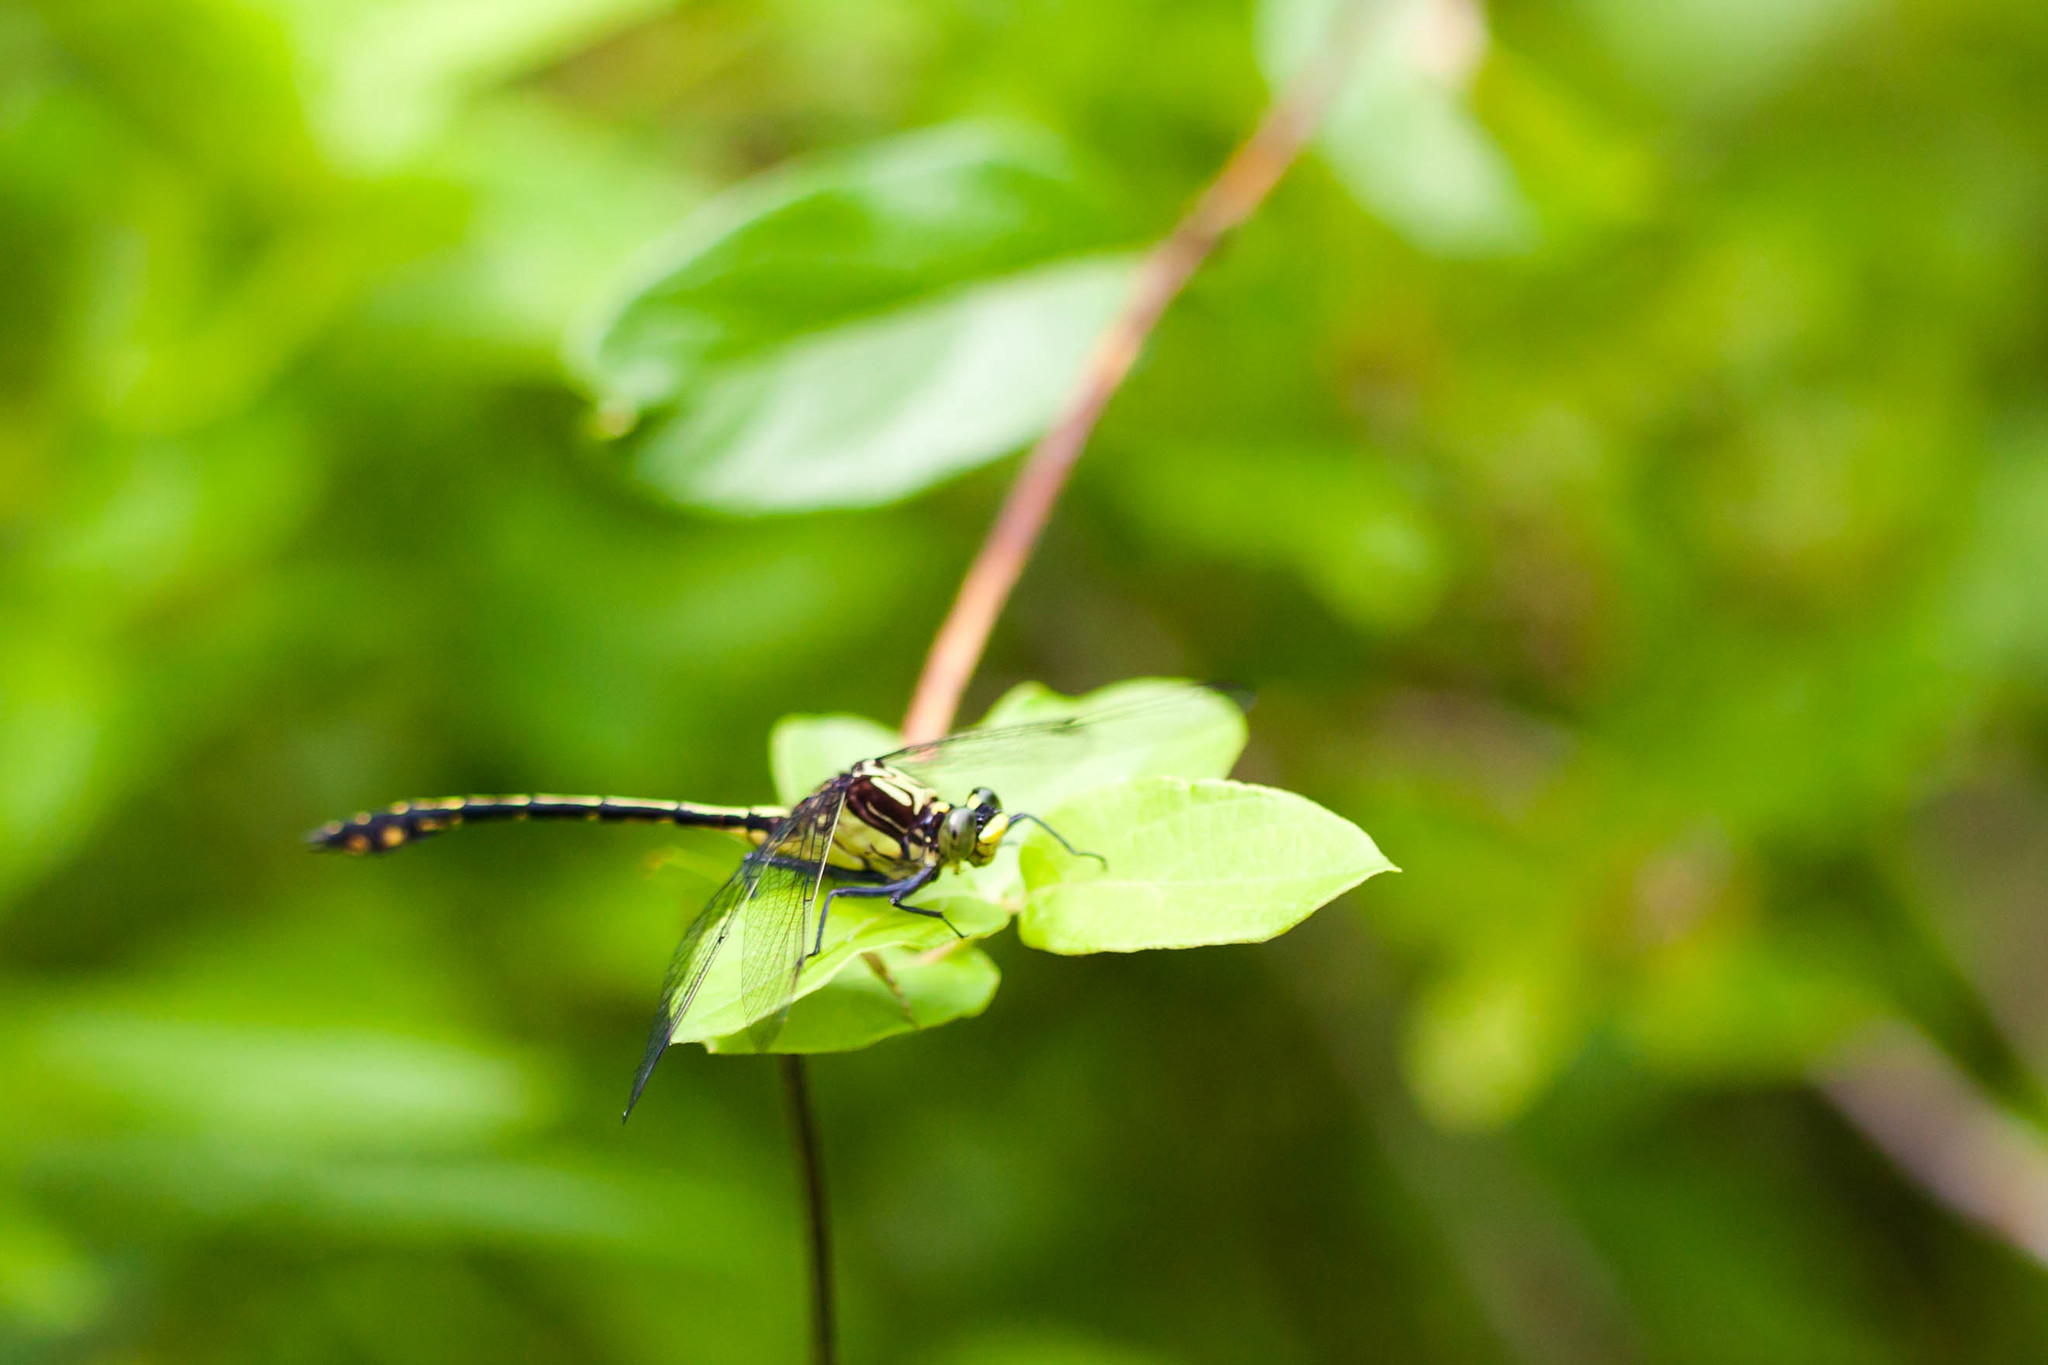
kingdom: Animalia
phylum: Arthropoda
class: Insecta
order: Odonata
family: Gomphidae
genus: Dromogomphus
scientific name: Dromogomphus spinosus
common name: Black-shouldered spinyleg
